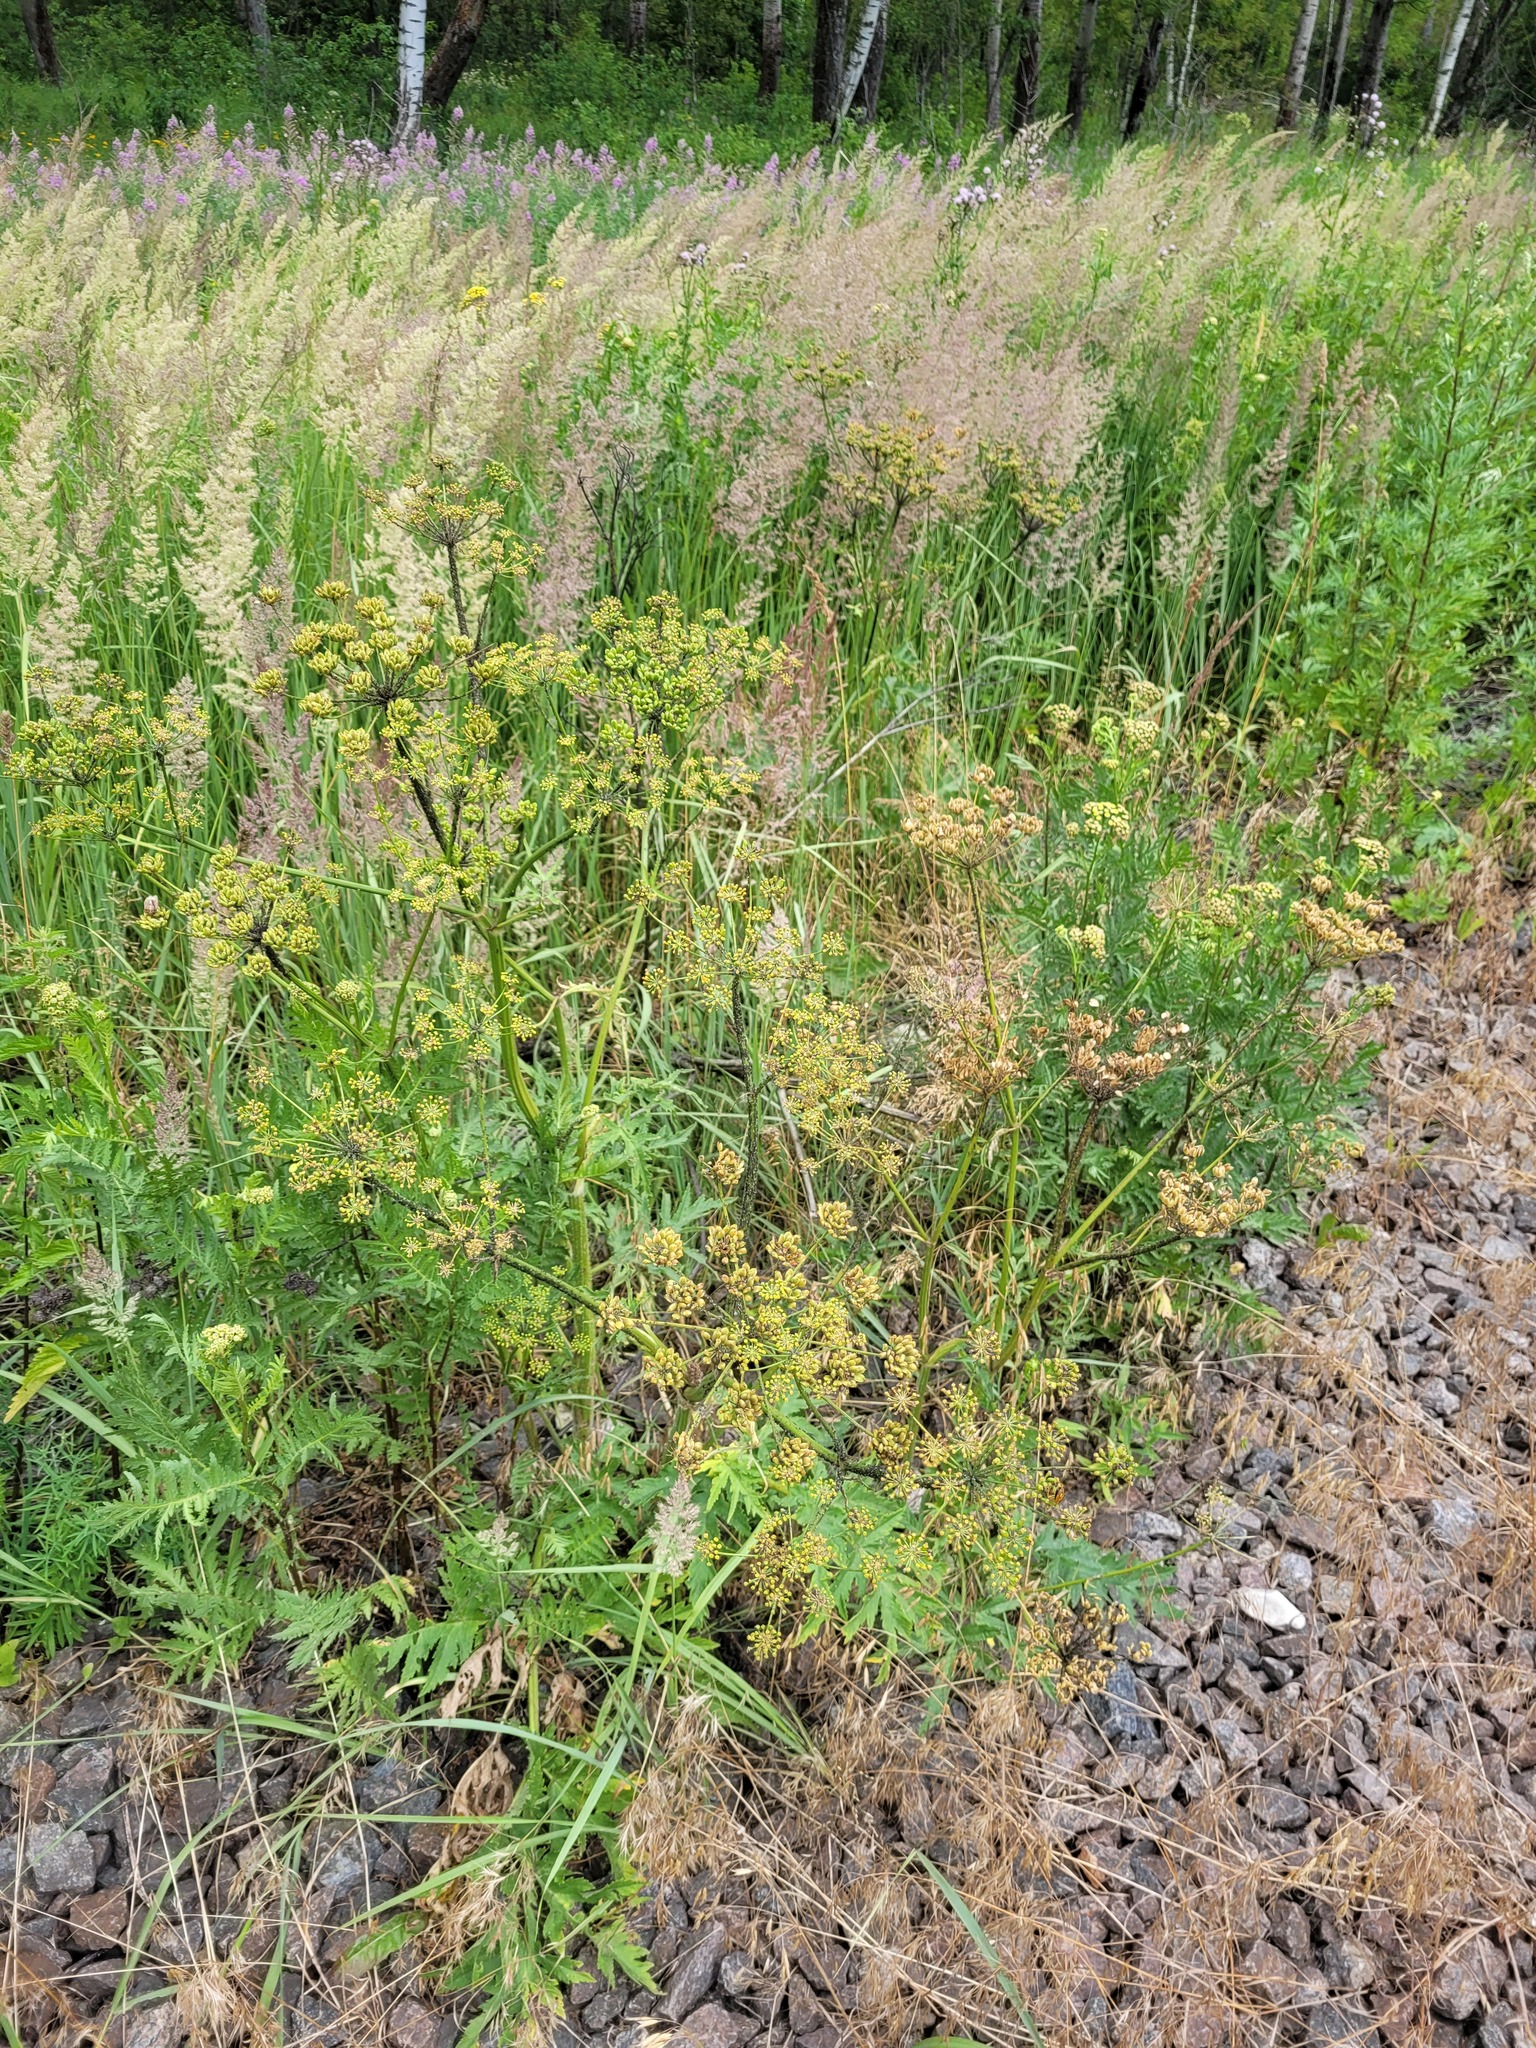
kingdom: Plantae
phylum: Tracheophyta
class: Magnoliopsida
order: Apiales
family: Apiaceae
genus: Heracleum
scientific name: Heracleum sphondylium
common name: Hogweed
